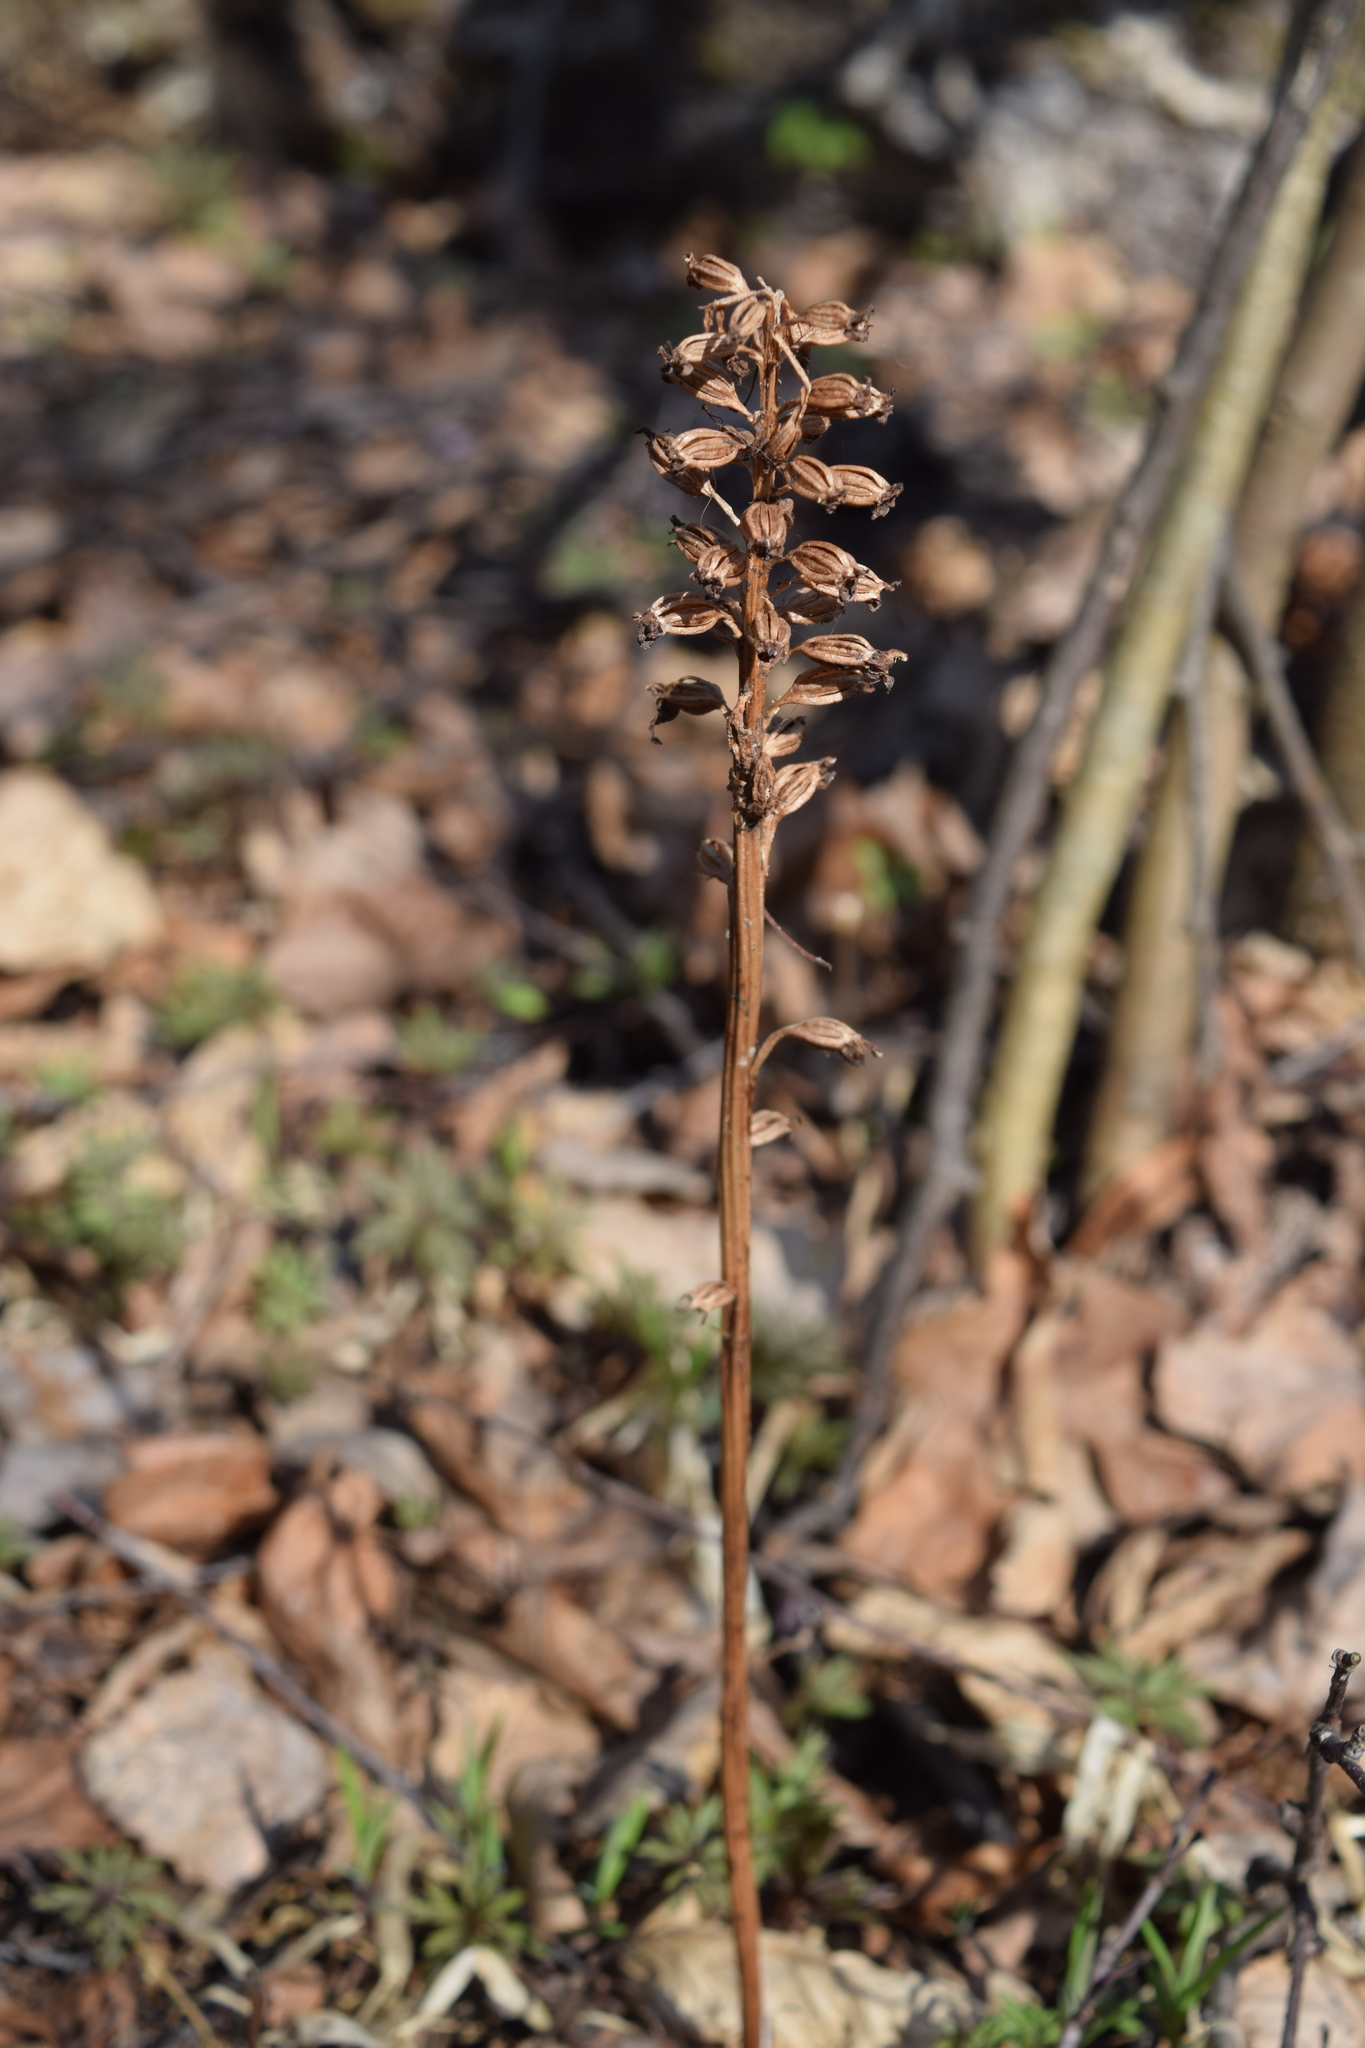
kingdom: Plantae
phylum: Tracheophyta
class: Liliopsida
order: Asparagales
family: Orchidaceae
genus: Neottia
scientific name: Neottia nidus-avis
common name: Bird's-nest orchid
